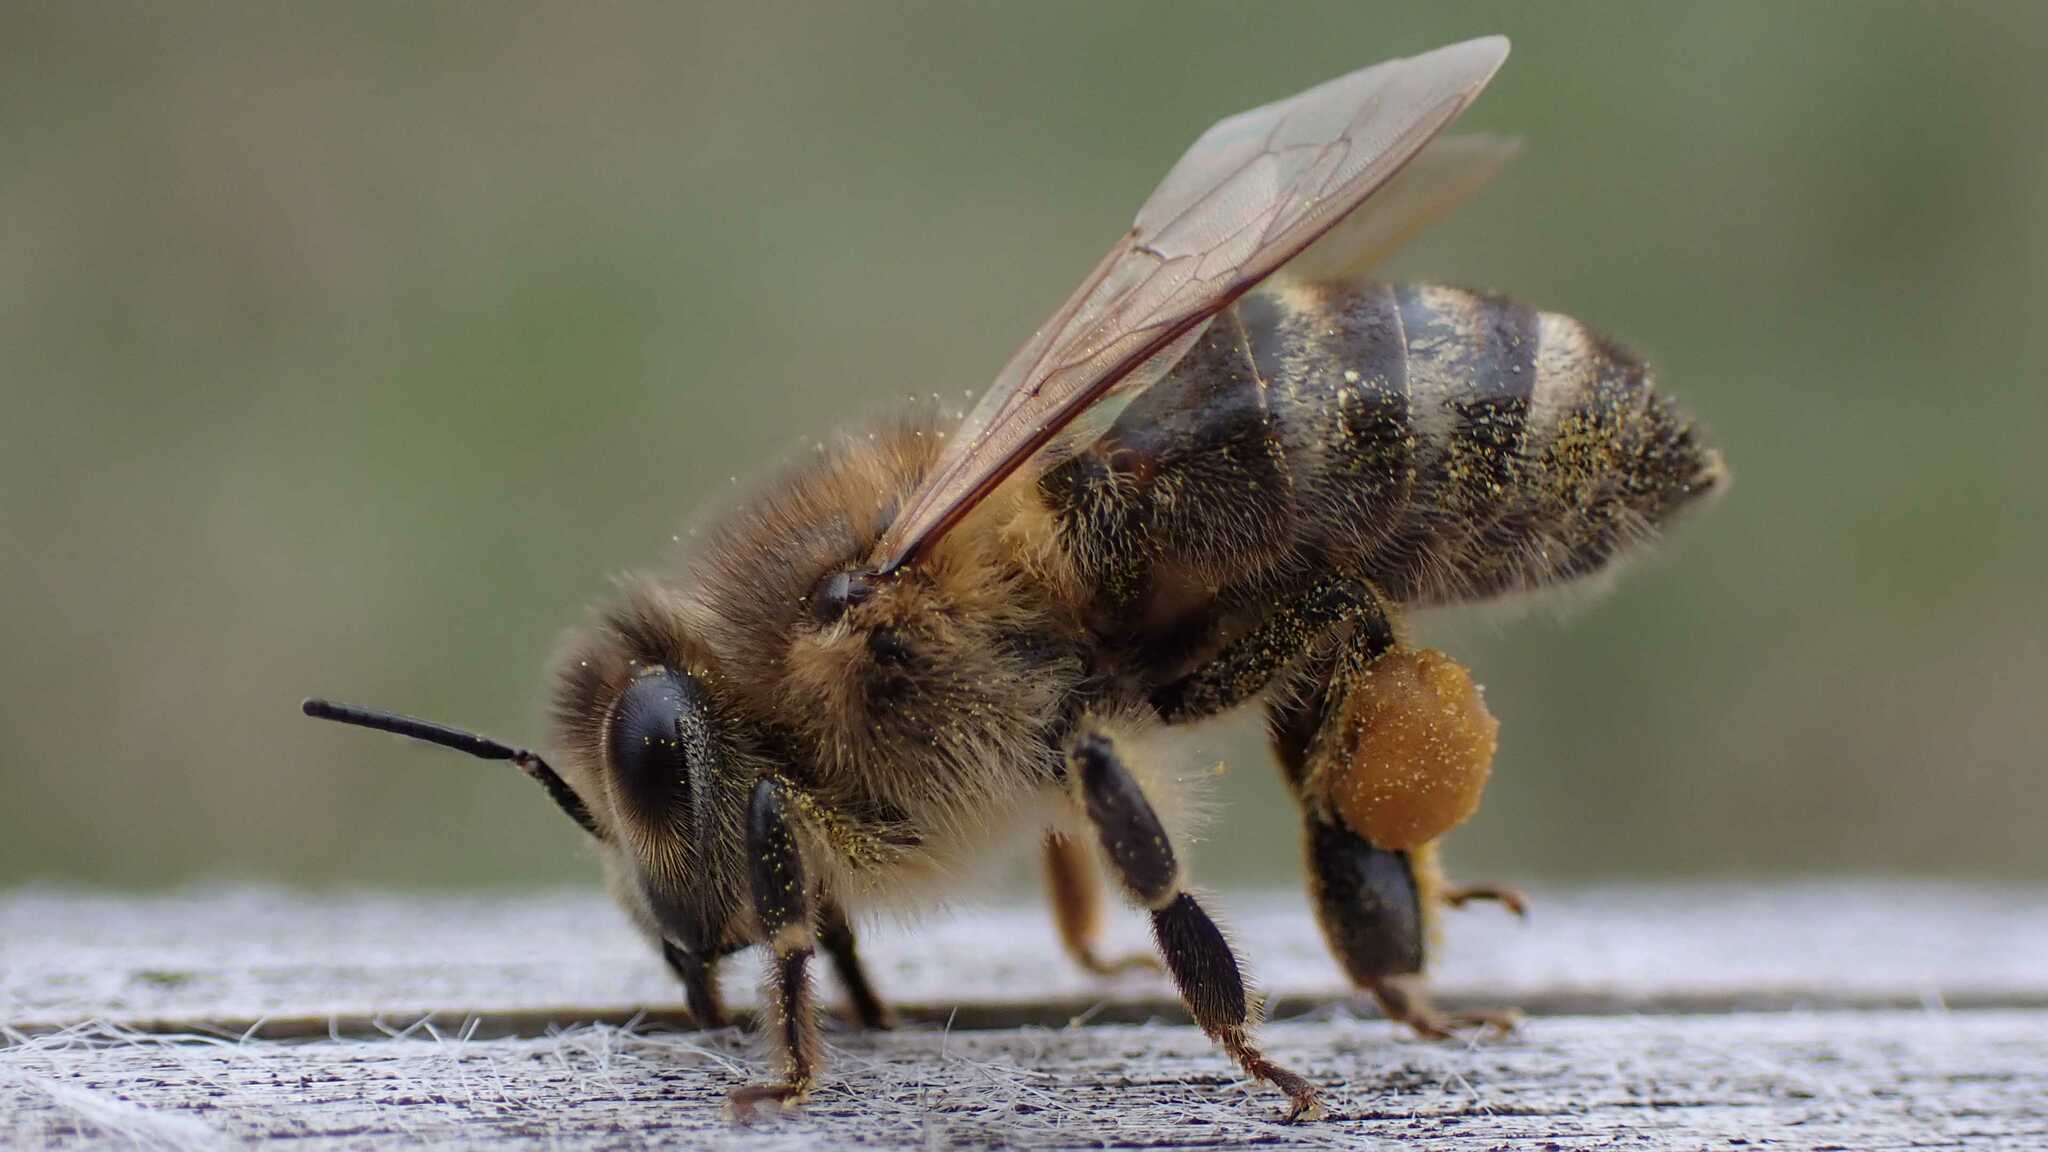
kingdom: Animalia
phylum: Arthropoda
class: Insecta
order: Hymenoptera
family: Apidae
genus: Apis
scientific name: Apis mellifera
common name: Honey bee
